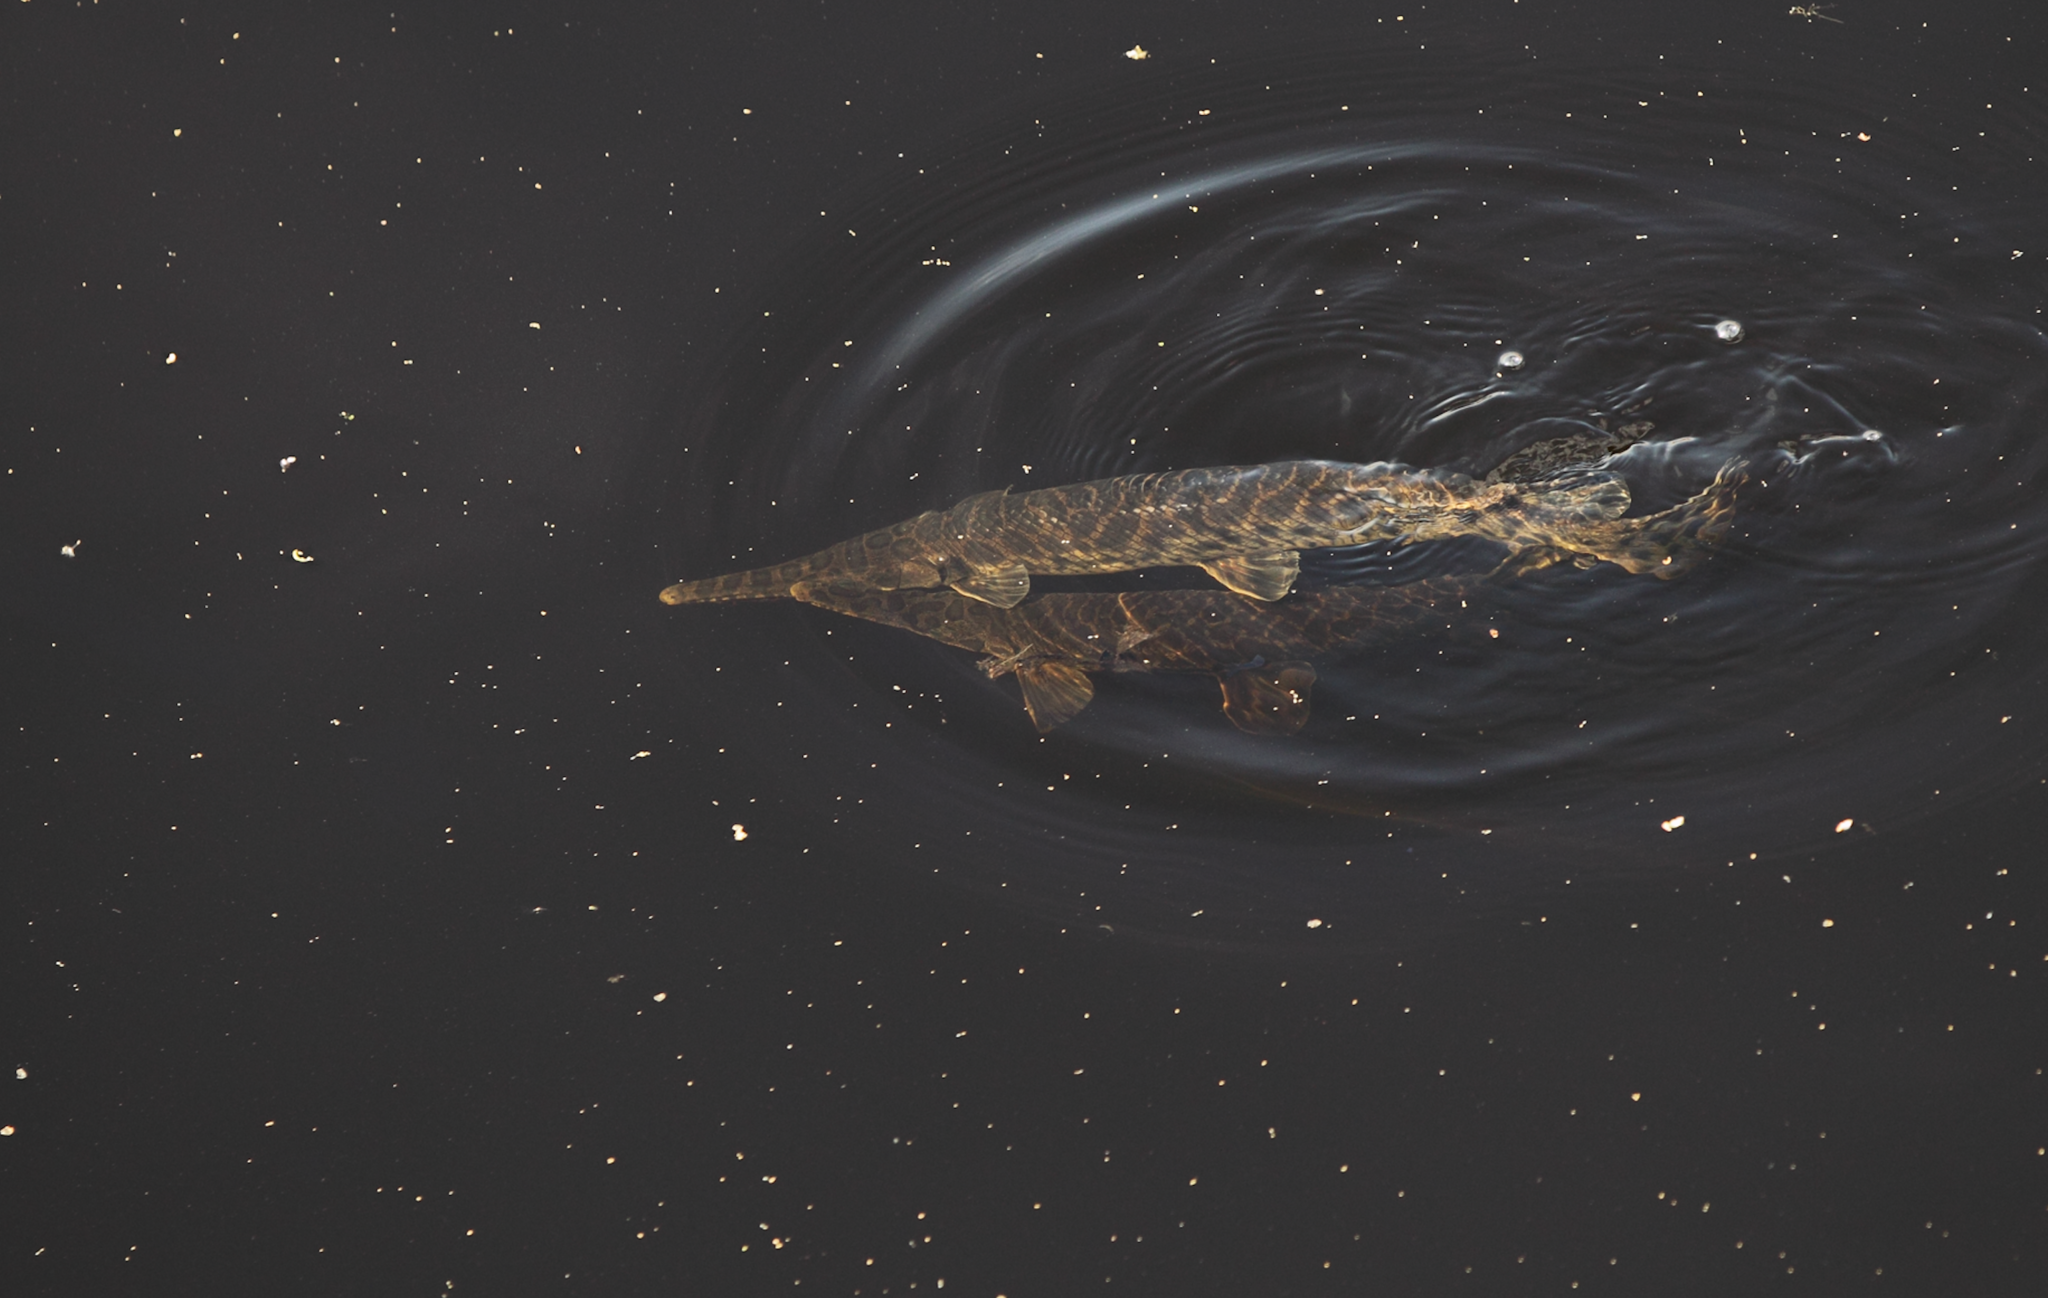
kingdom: Animalia
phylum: Chordata
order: Lepisosteiformes
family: Lepisosteidae
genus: Lepisosteus
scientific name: Lepisosteus oculatus
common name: Spotted gar
